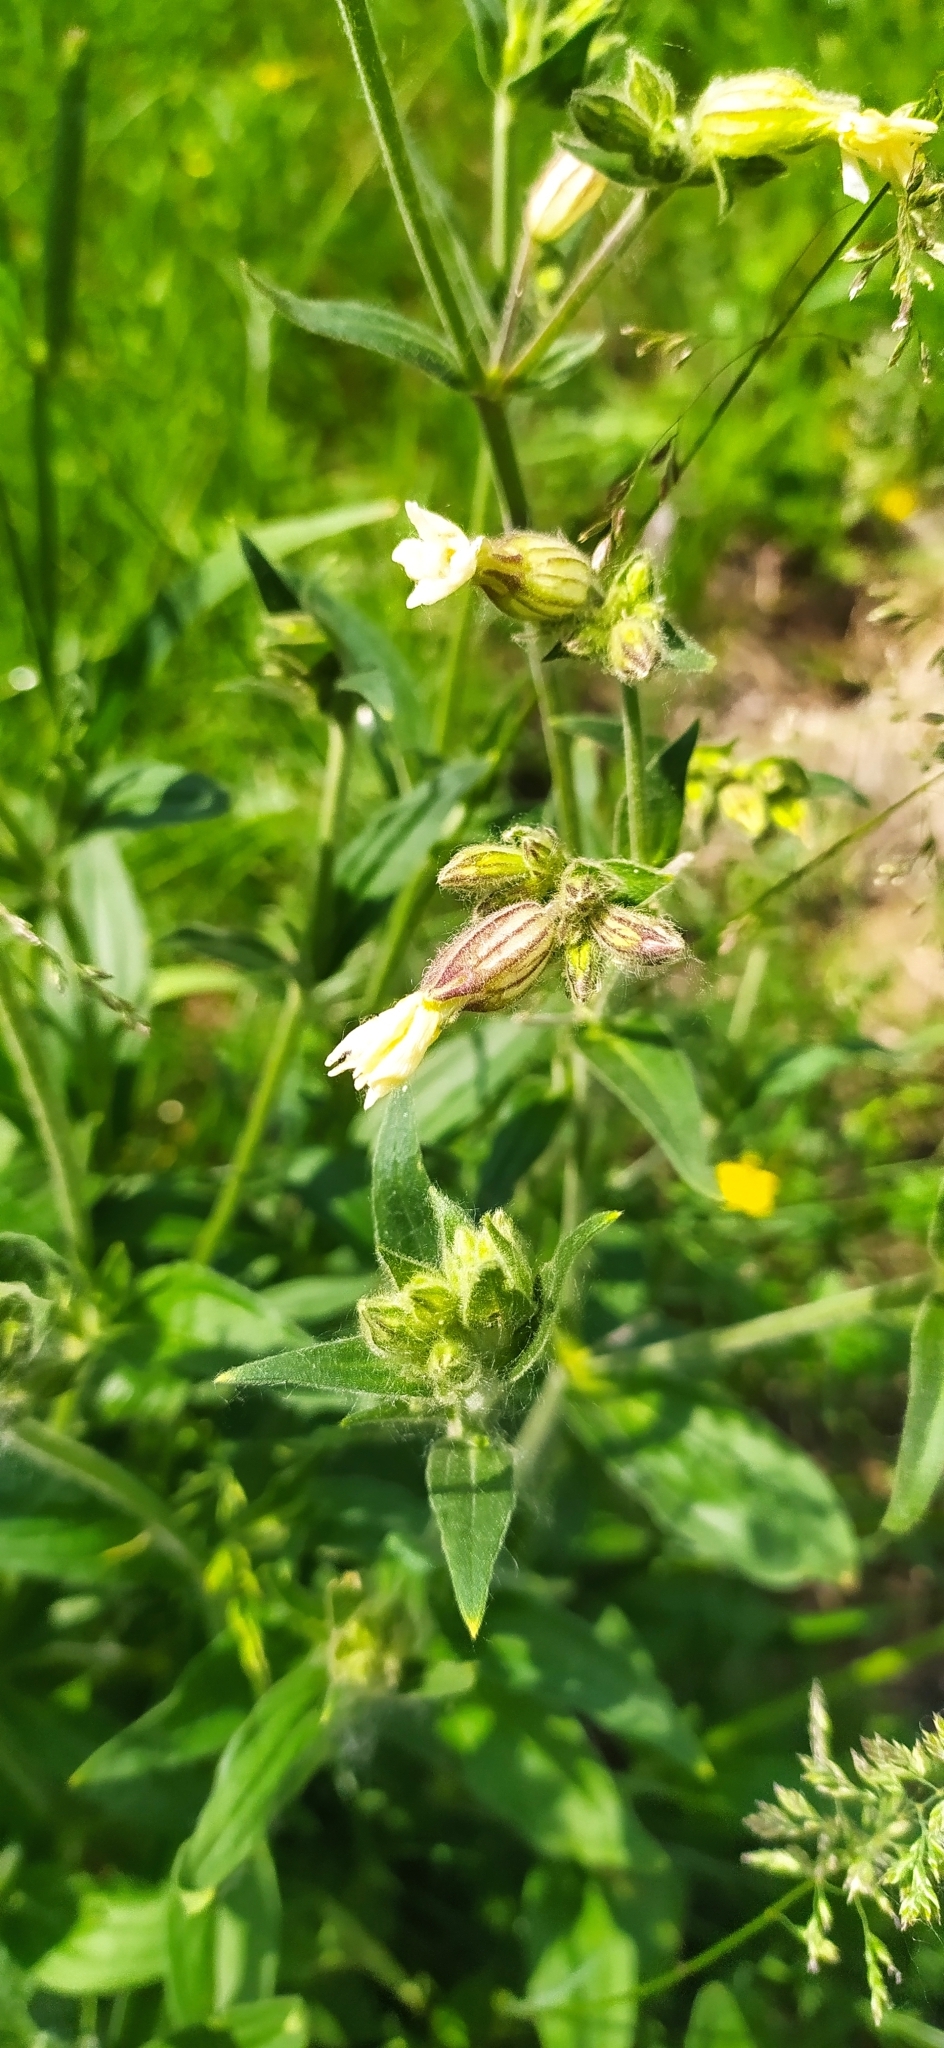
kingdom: Plantae
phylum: Tracheophyta
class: Magnoliopsida
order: Caryophyllales
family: Caryophyllaceae
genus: Silene
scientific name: Silene latifolia
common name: White campion
